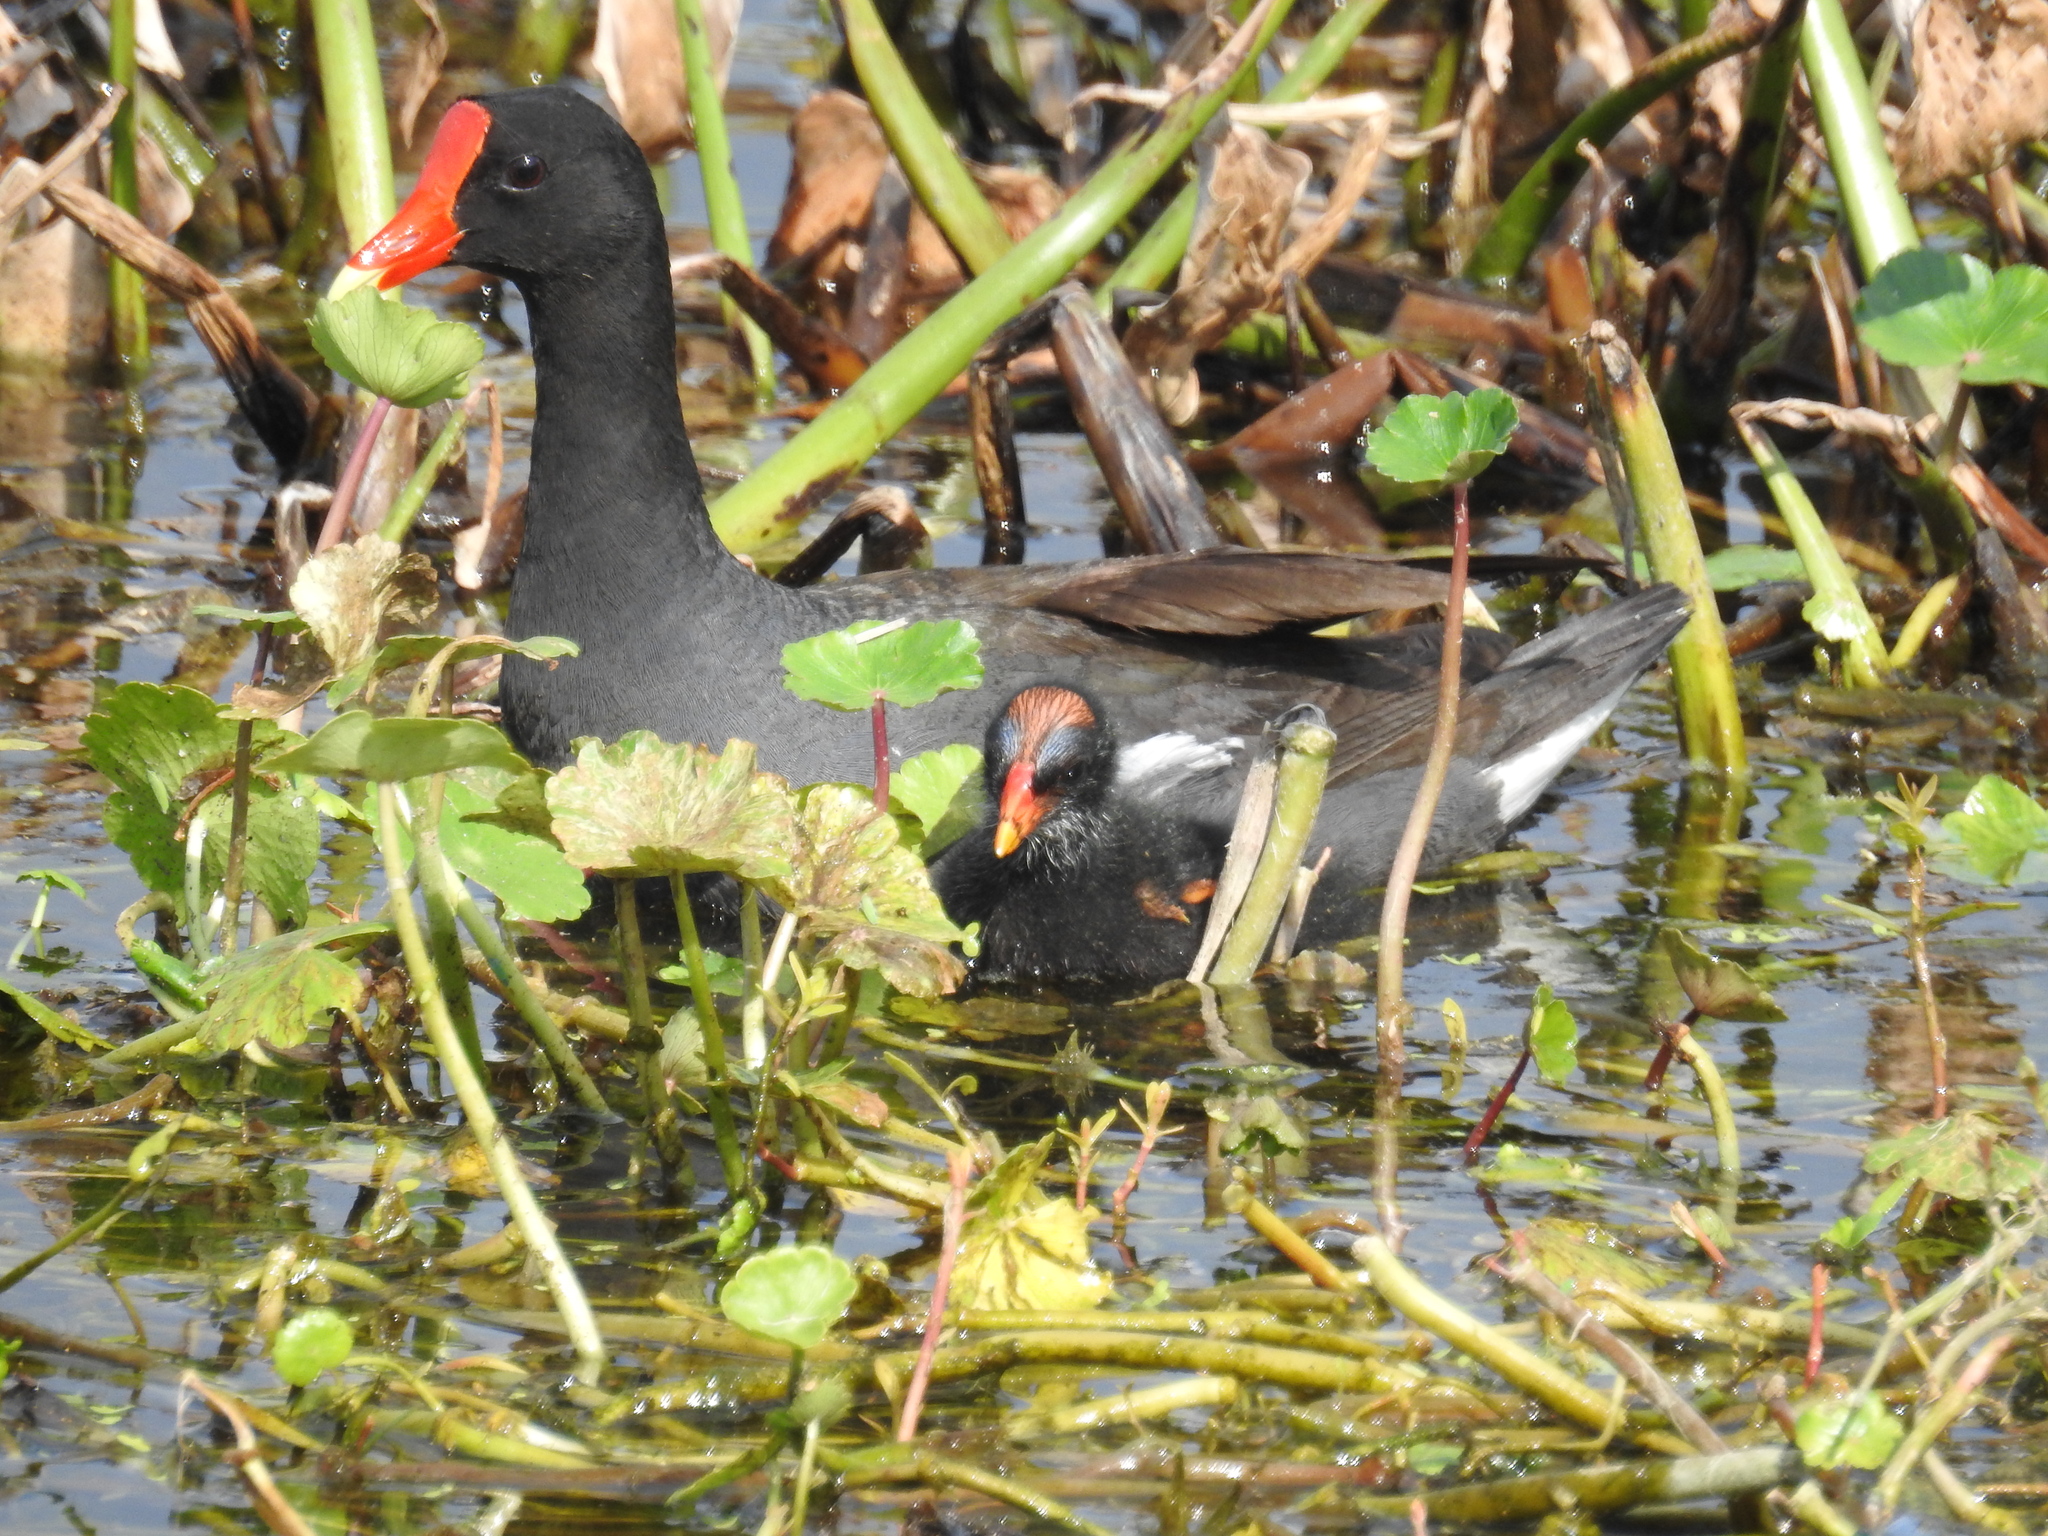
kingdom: Animalia
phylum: Chordata
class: Aves
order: Gruiformes
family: Rallidae
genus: Gallinula
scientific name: Gallinula chloropus
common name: Common moorhen
